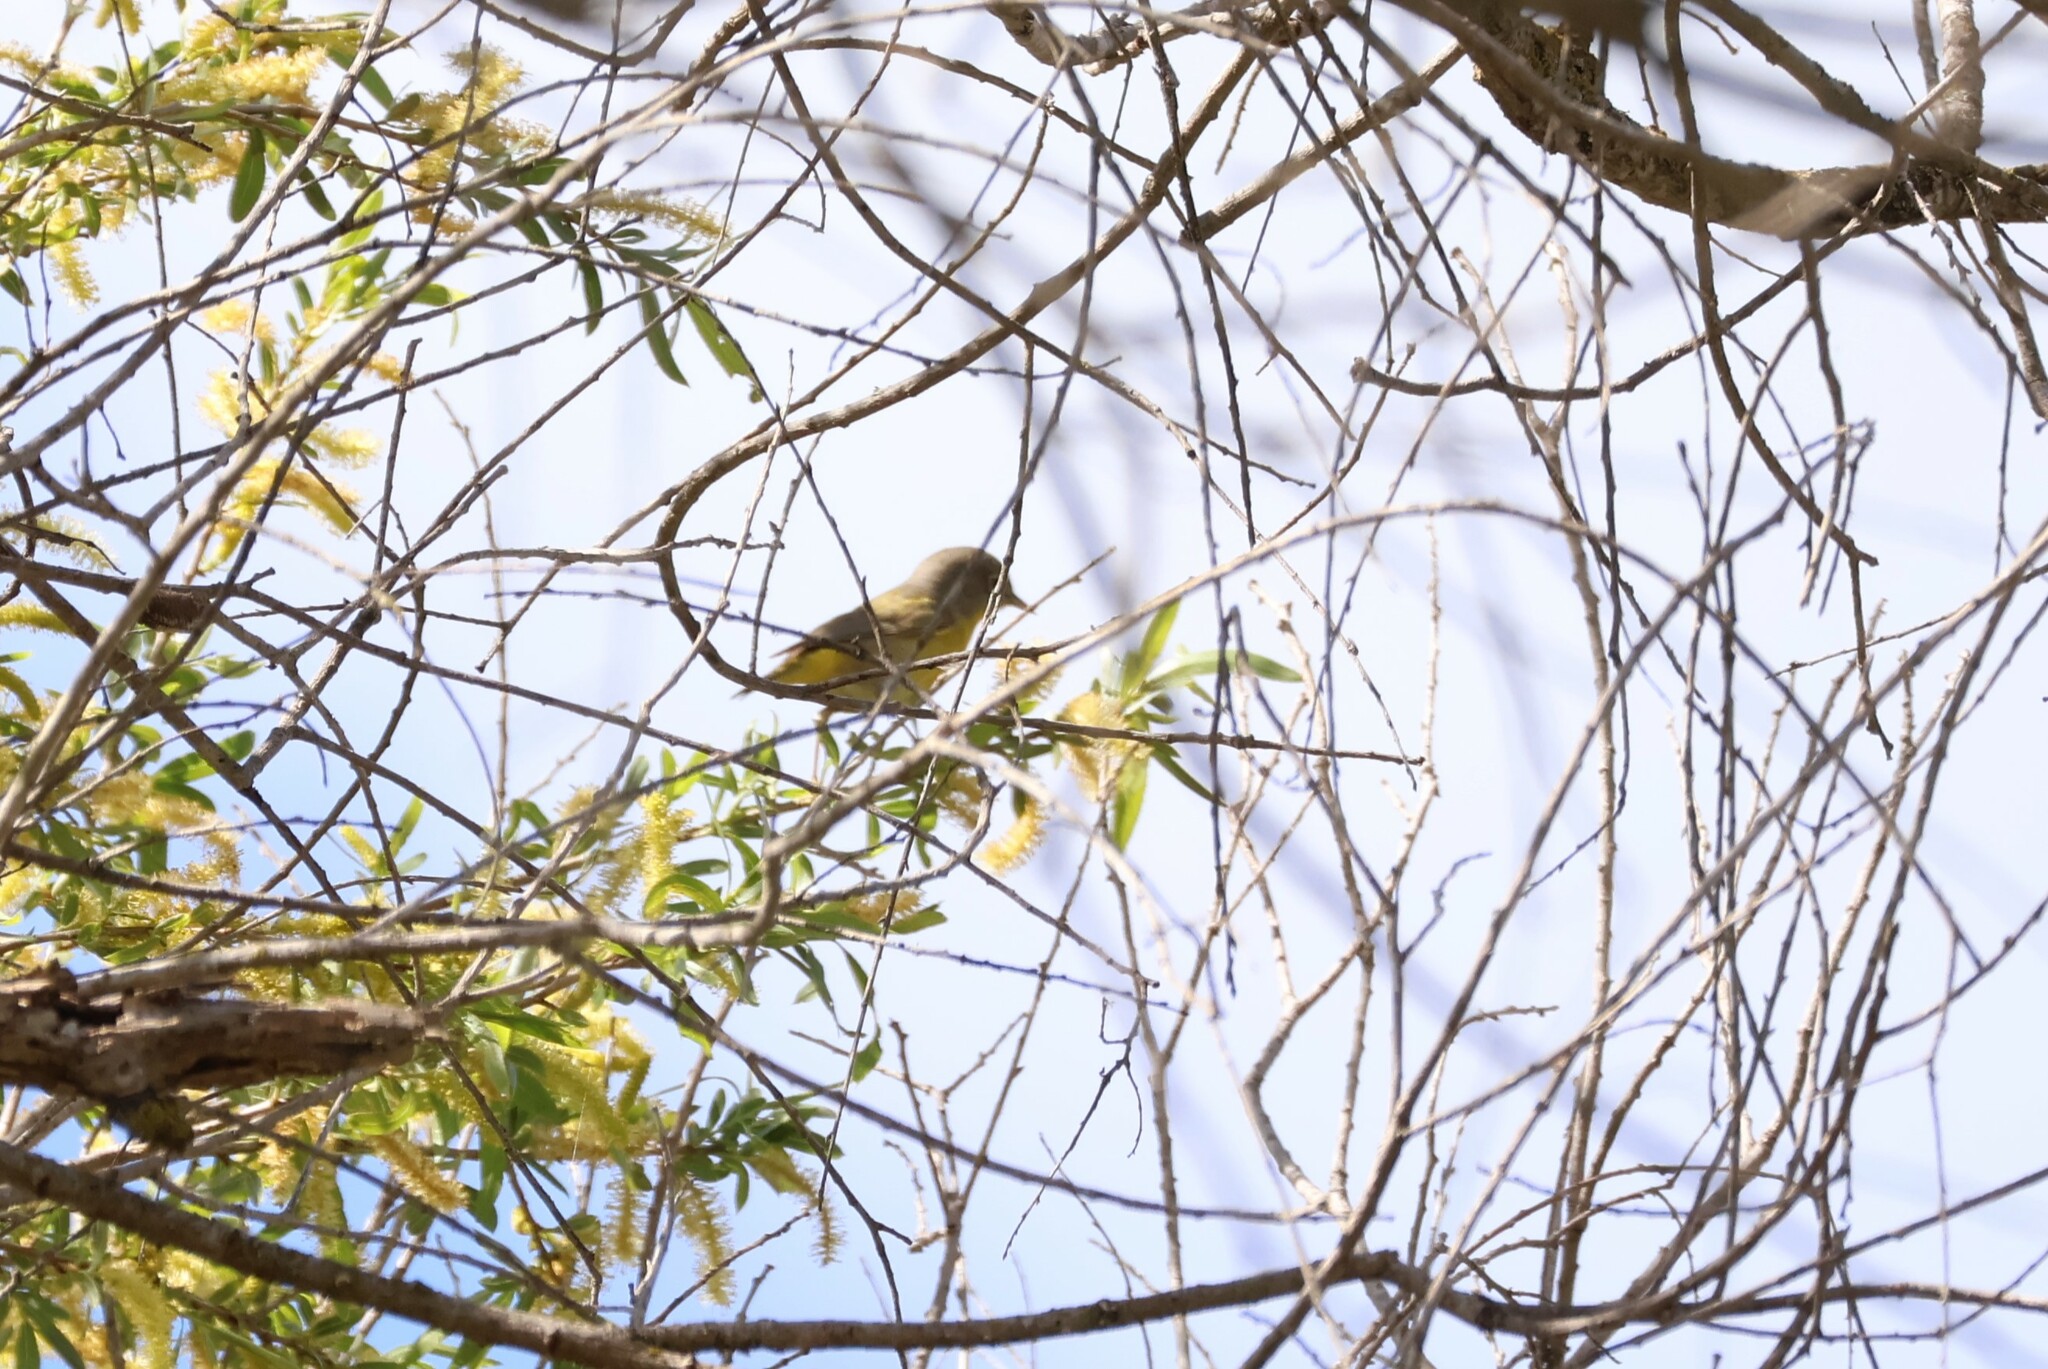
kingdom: Animalia
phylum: Chordata
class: Aves
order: Passeriformes
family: Parulidae
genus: Leiothlypis
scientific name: Leiothlypis ruficapilla
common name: Nashville warbler
